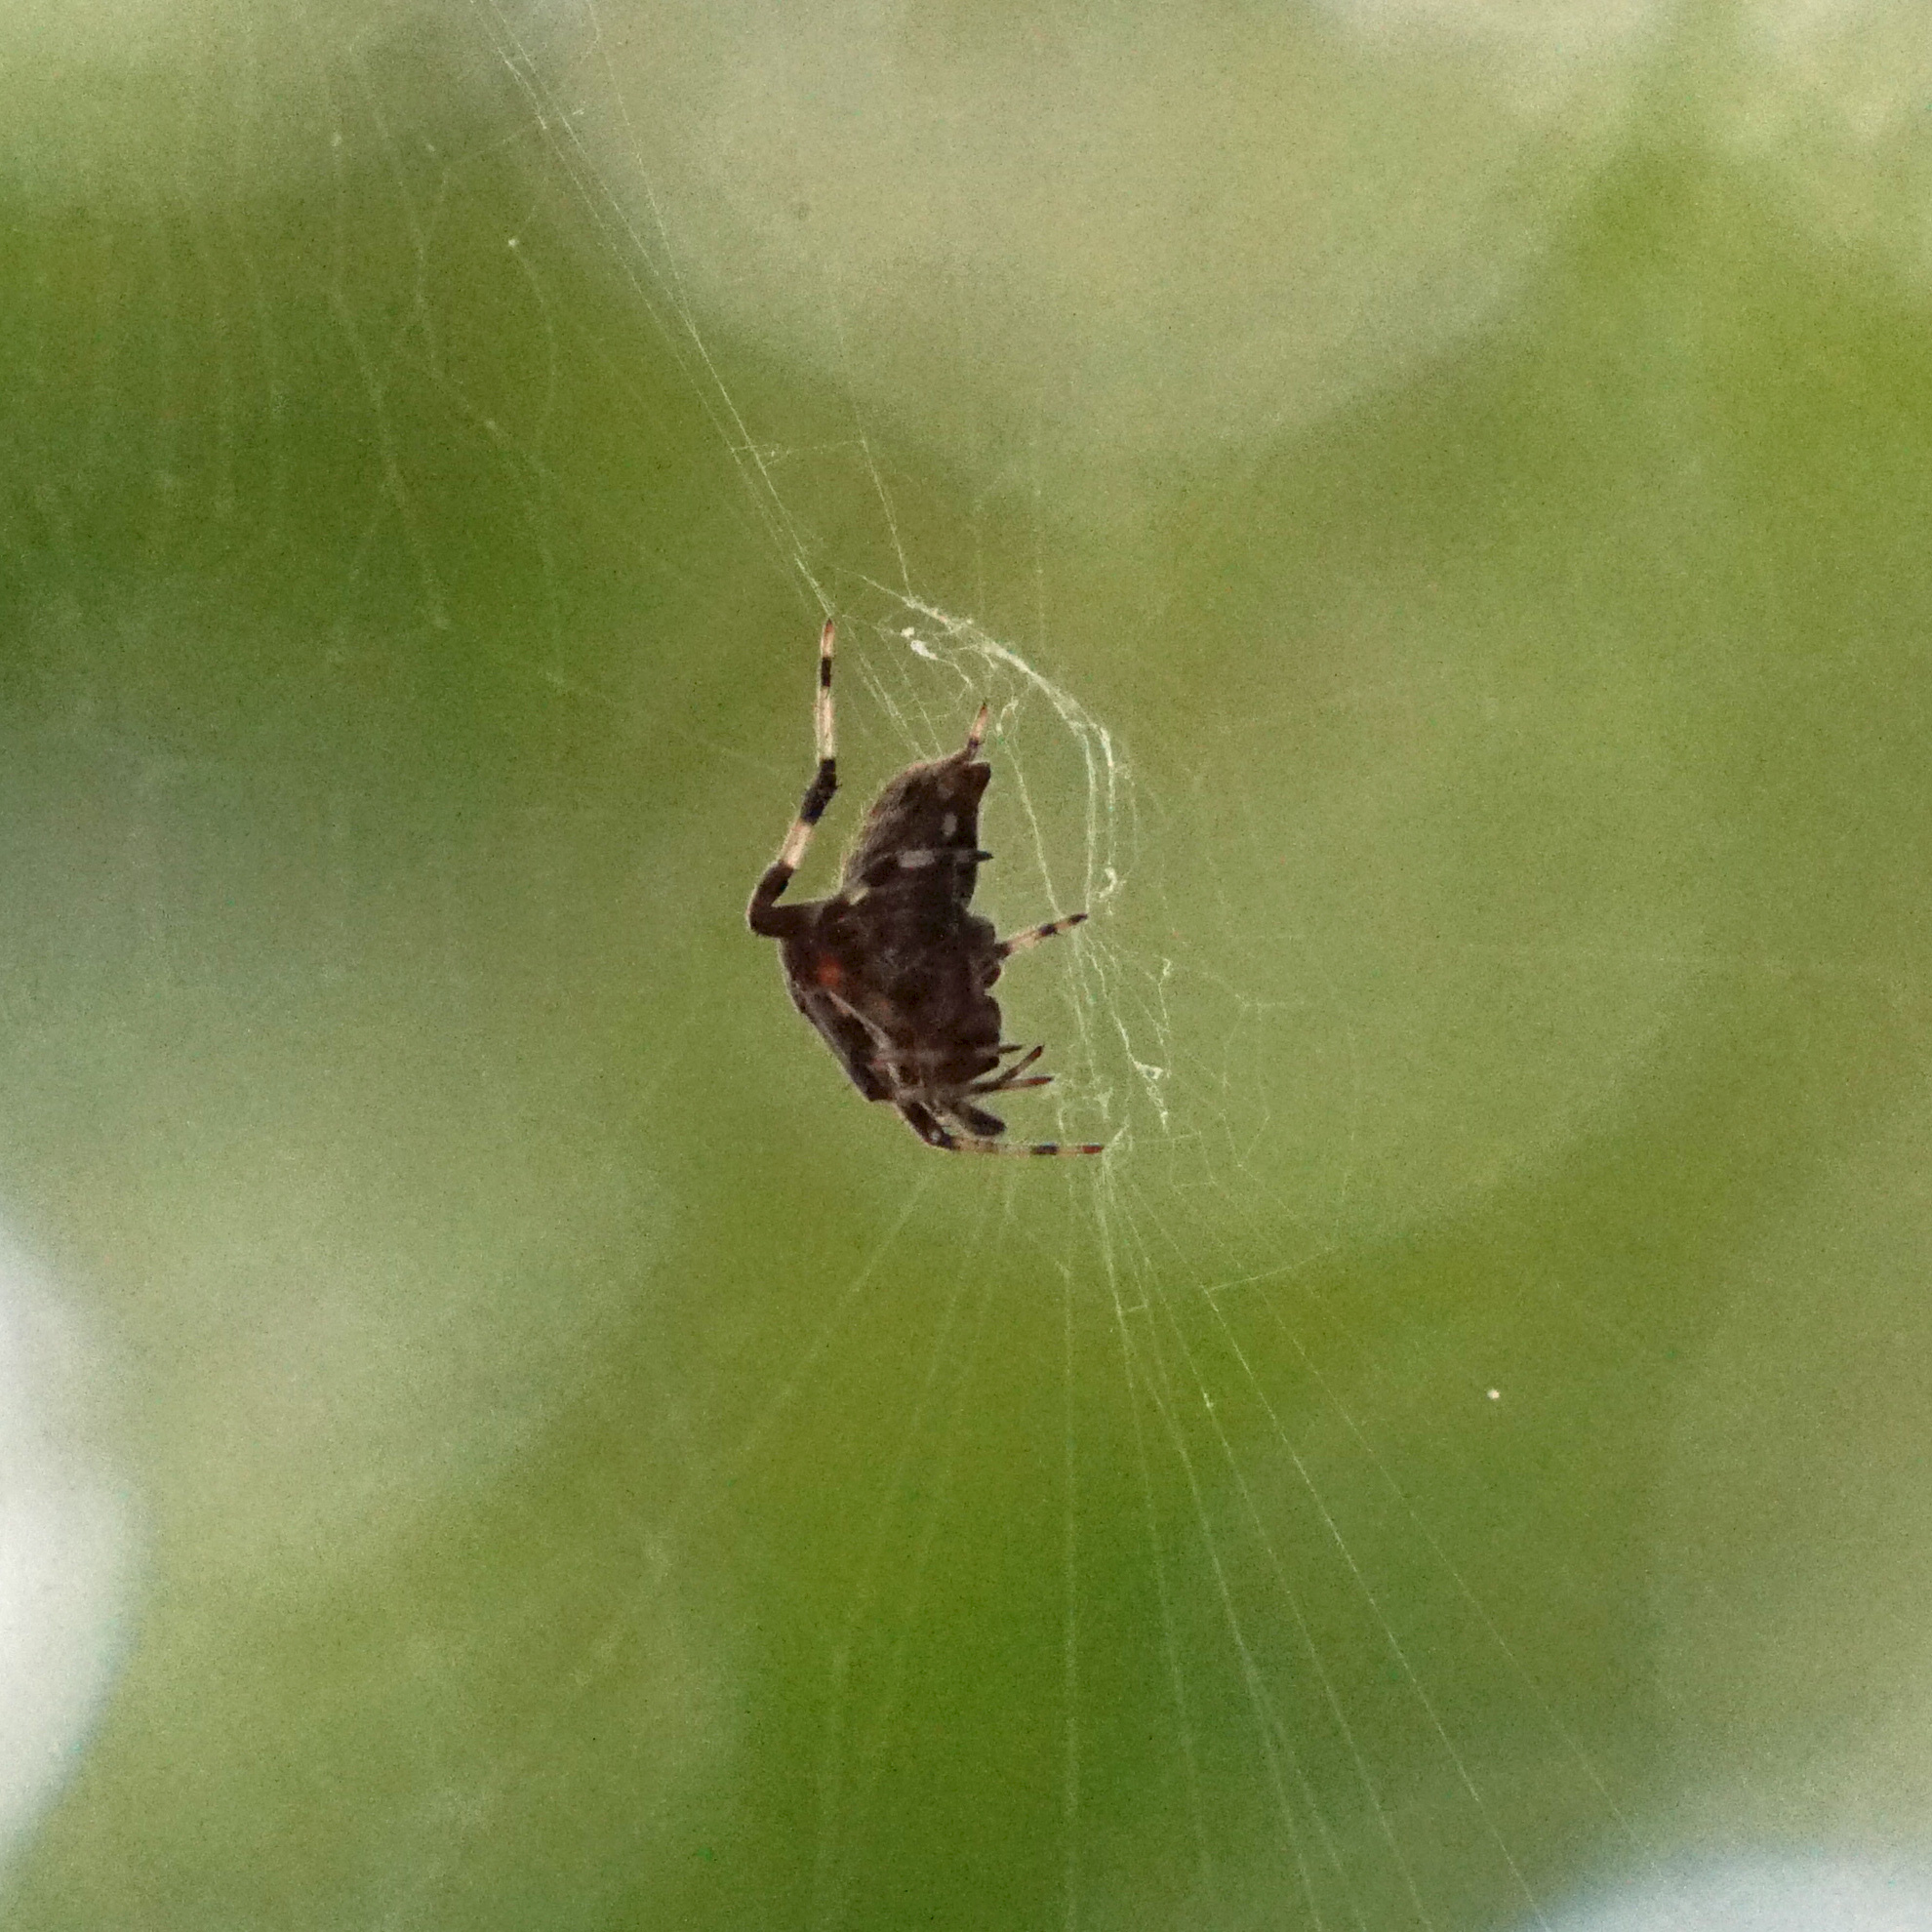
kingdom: Animalia
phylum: Arthropoda
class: Arachnida
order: Araneae
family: Araneidae
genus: Neoscona
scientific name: Neoscona crucifera
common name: Spotted orbweaver
